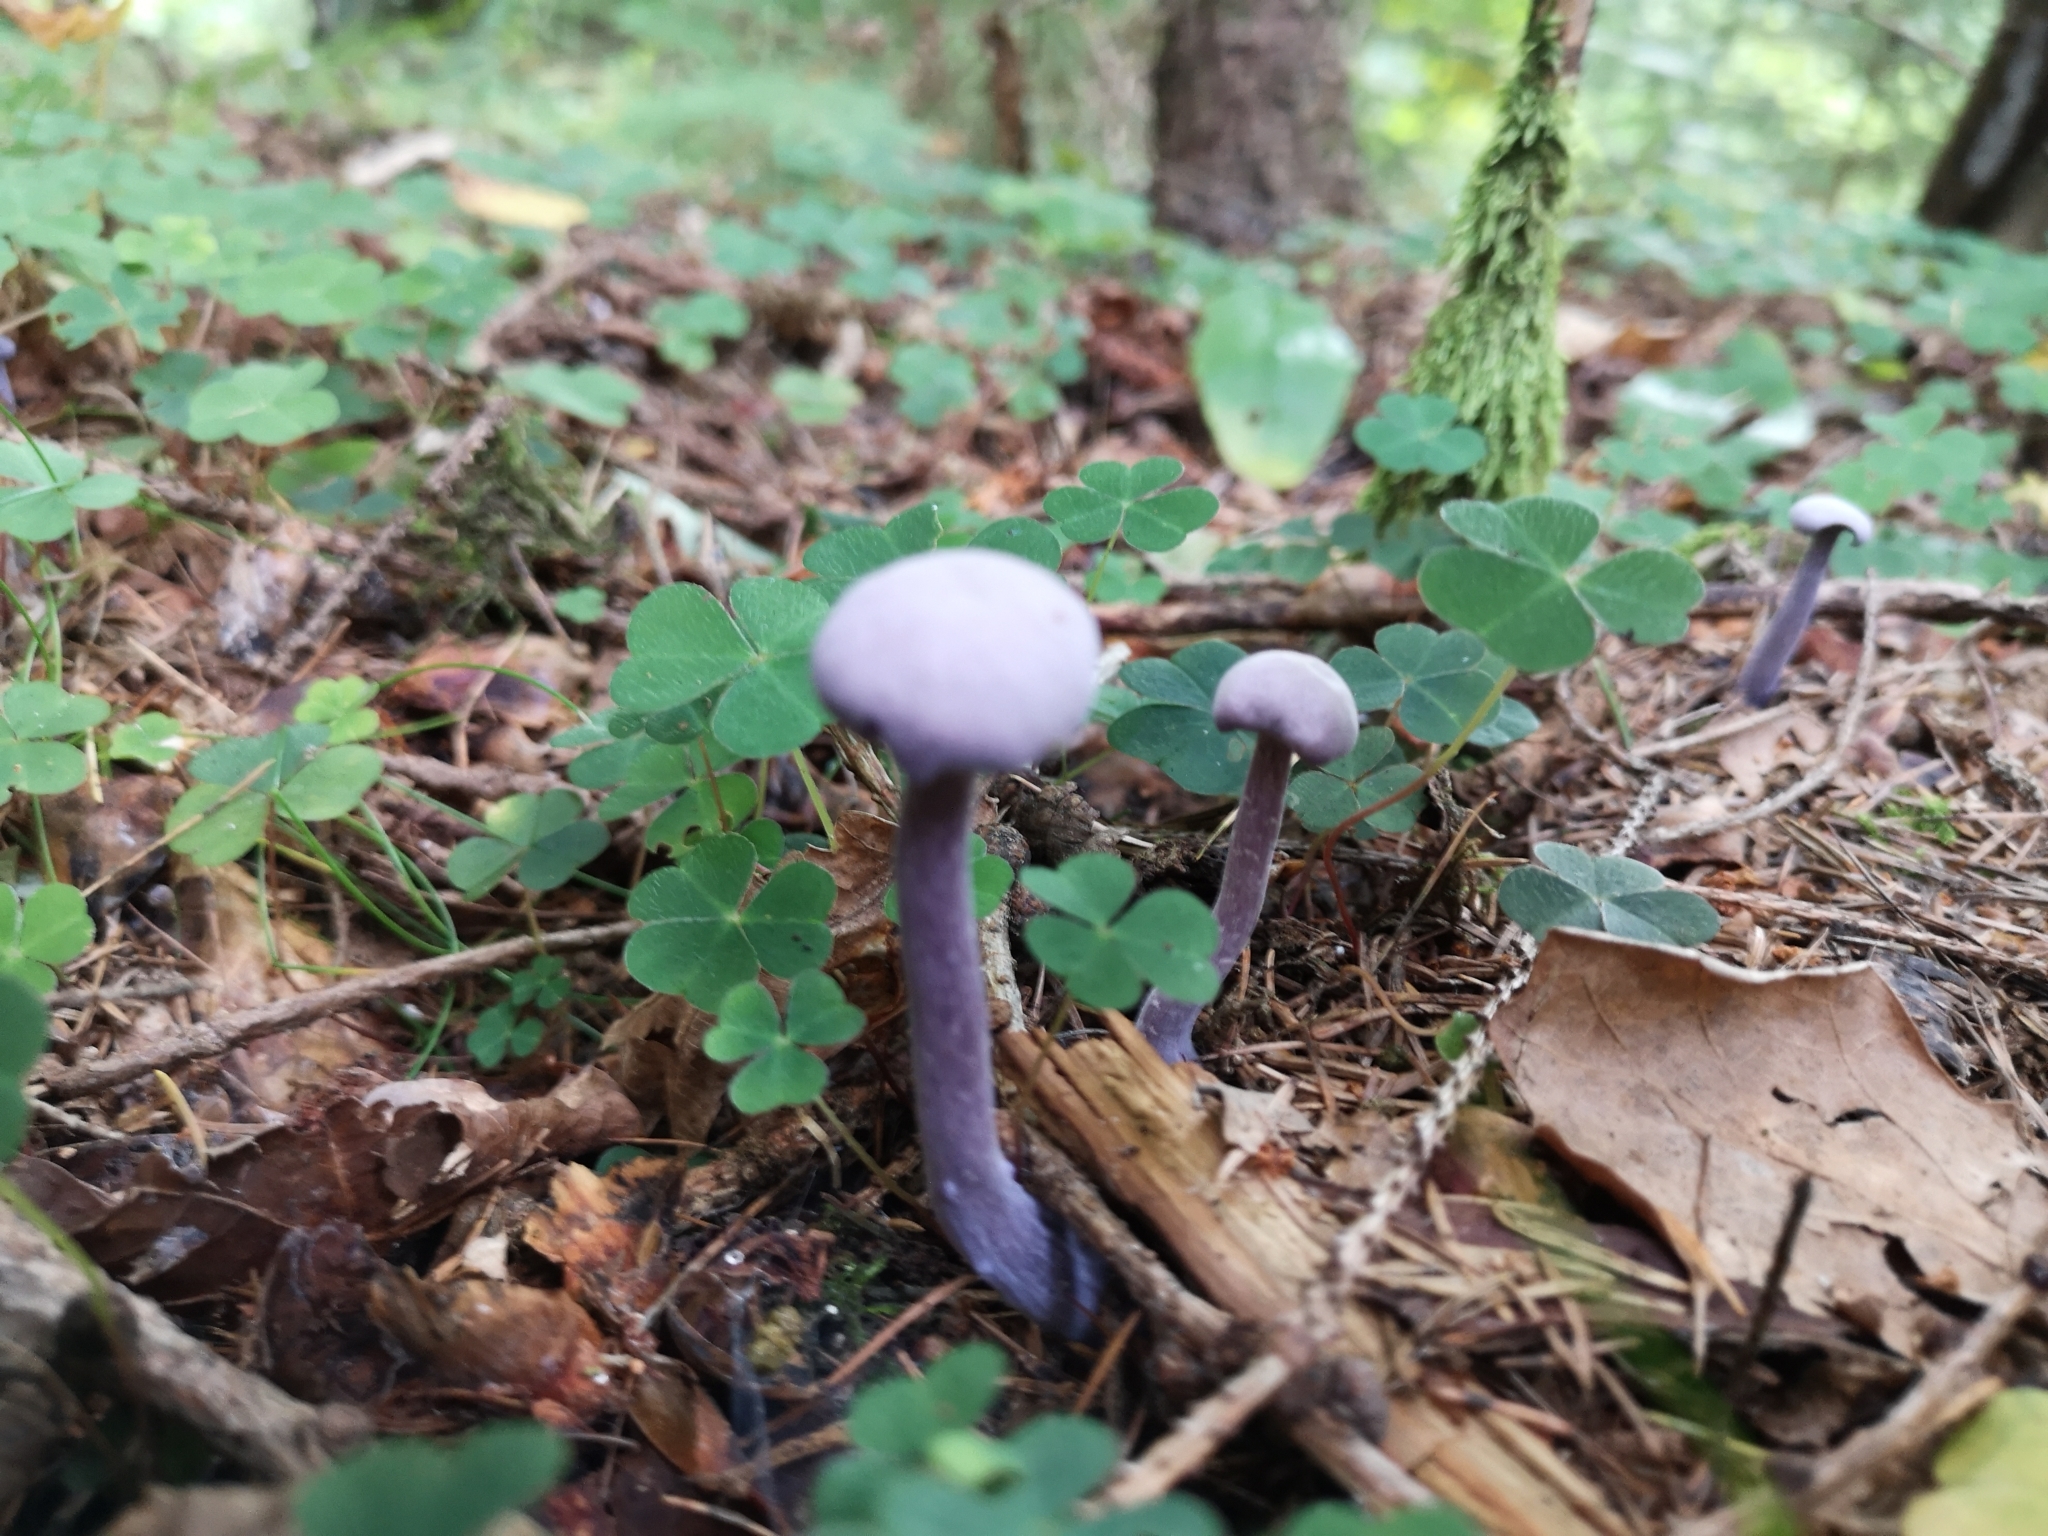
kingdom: Fungi
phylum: Basidiomycota
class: Agaricomycetes
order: Agaricales
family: Hydnangiaceae
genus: Laccaria
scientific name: Laccaria amethystina
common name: Amethyst deceiver
